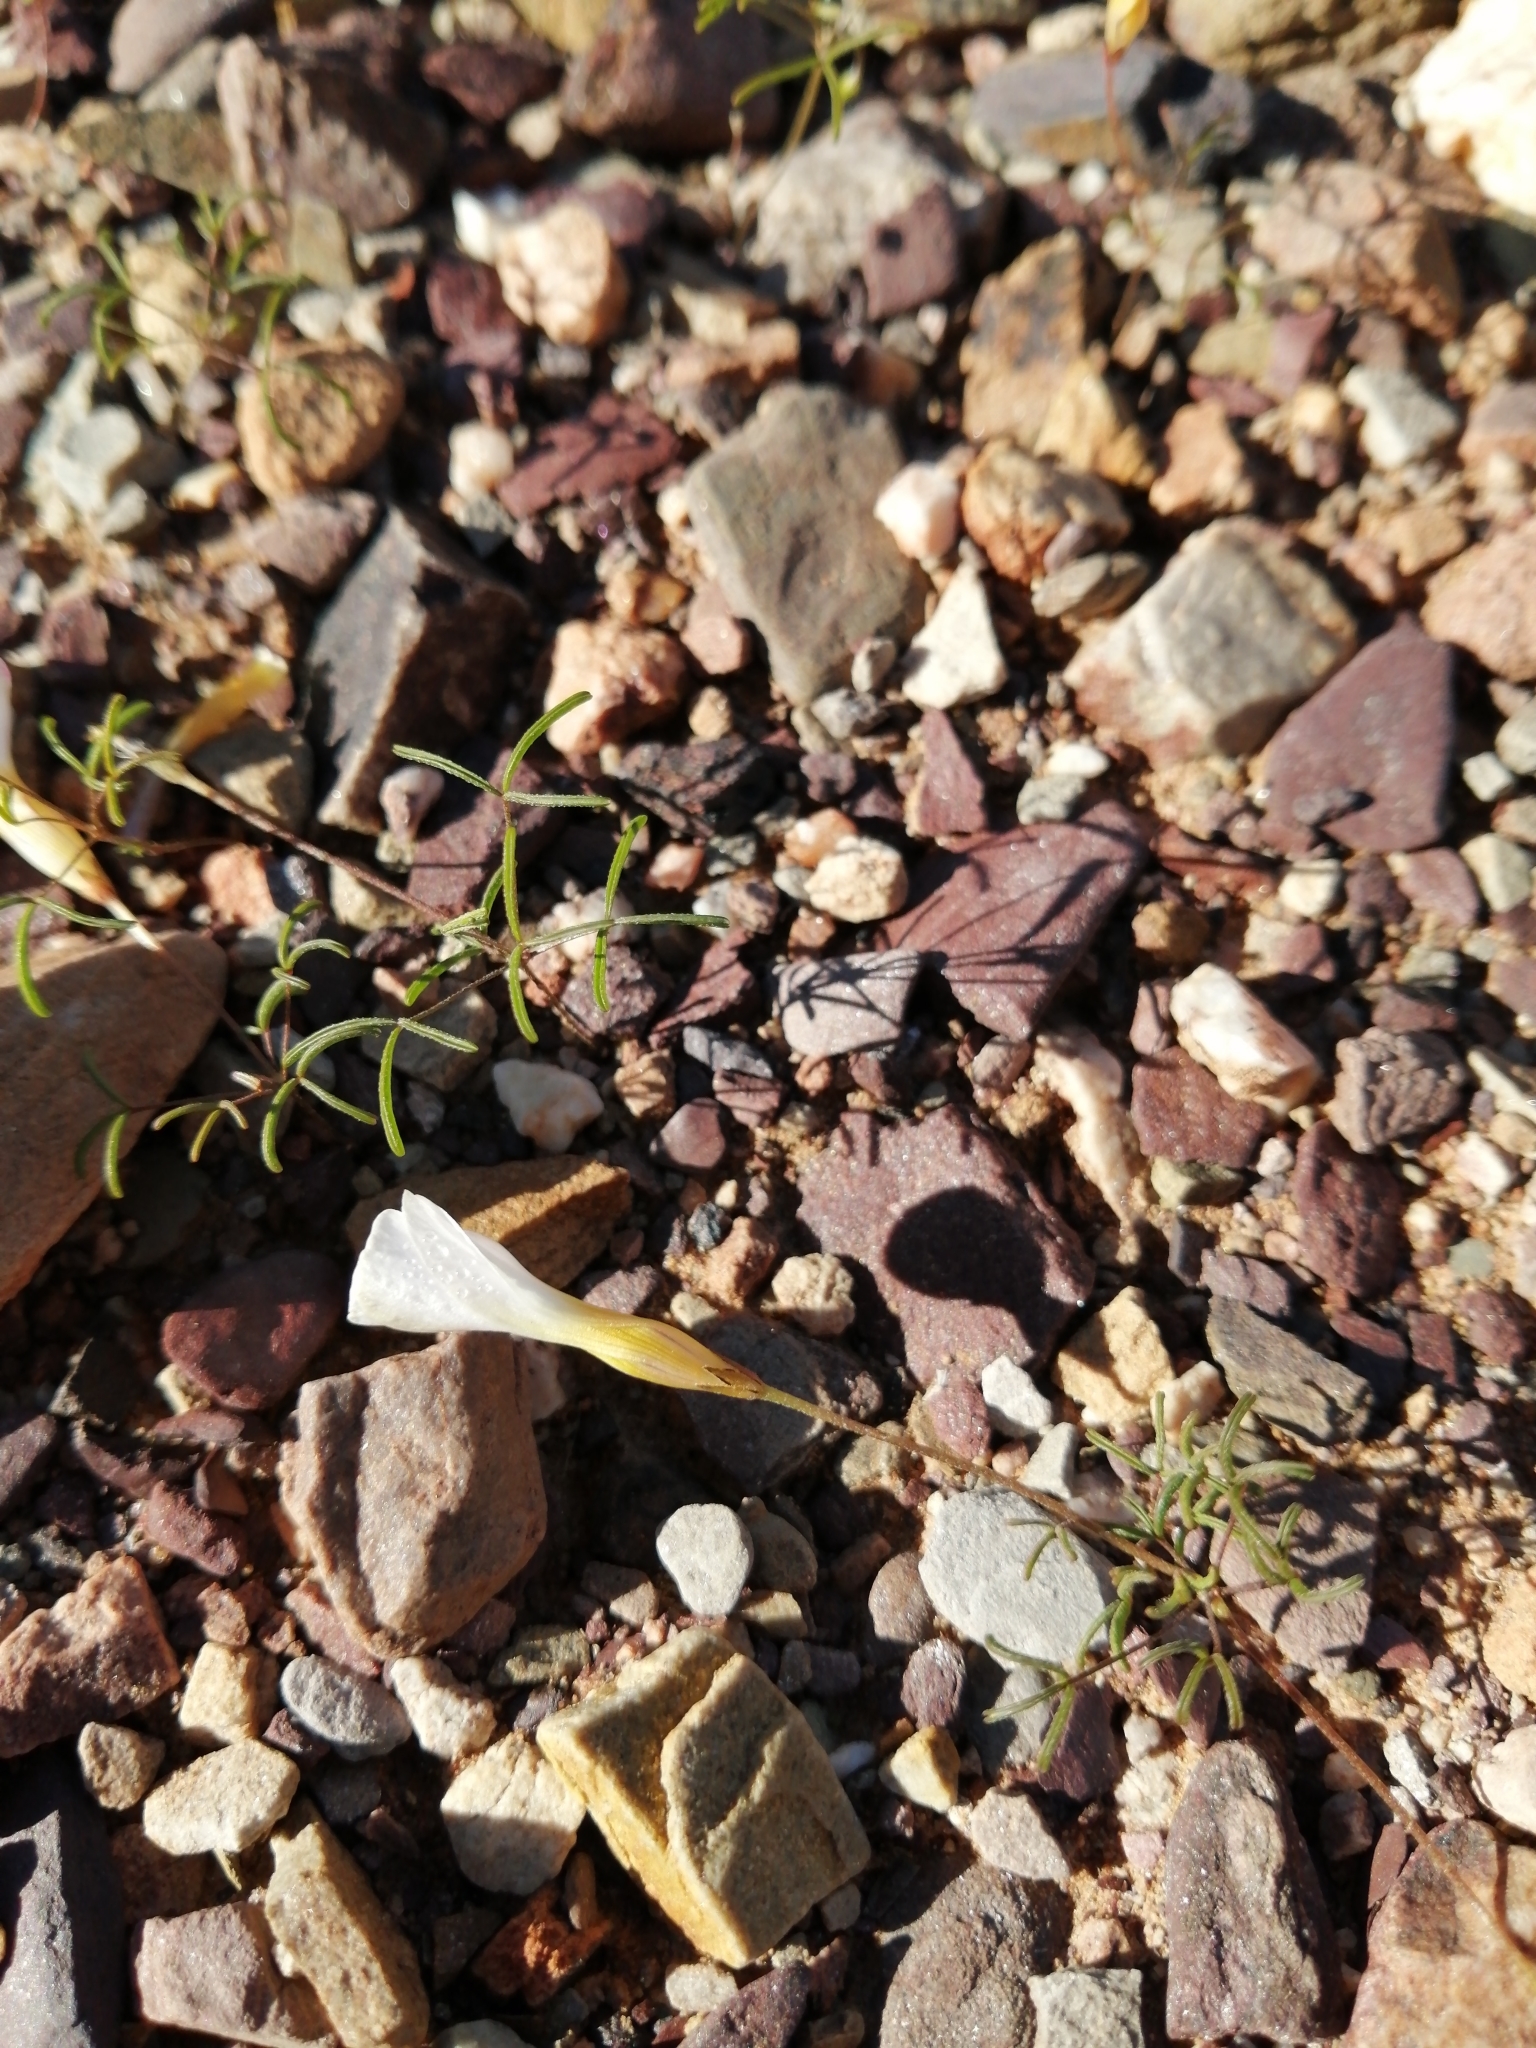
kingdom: Plantae
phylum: Tracheophyta
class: Magnoliopsida
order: Oxalidales
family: Oxalidaceae
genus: Oxalis
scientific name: Oxalis burkei
